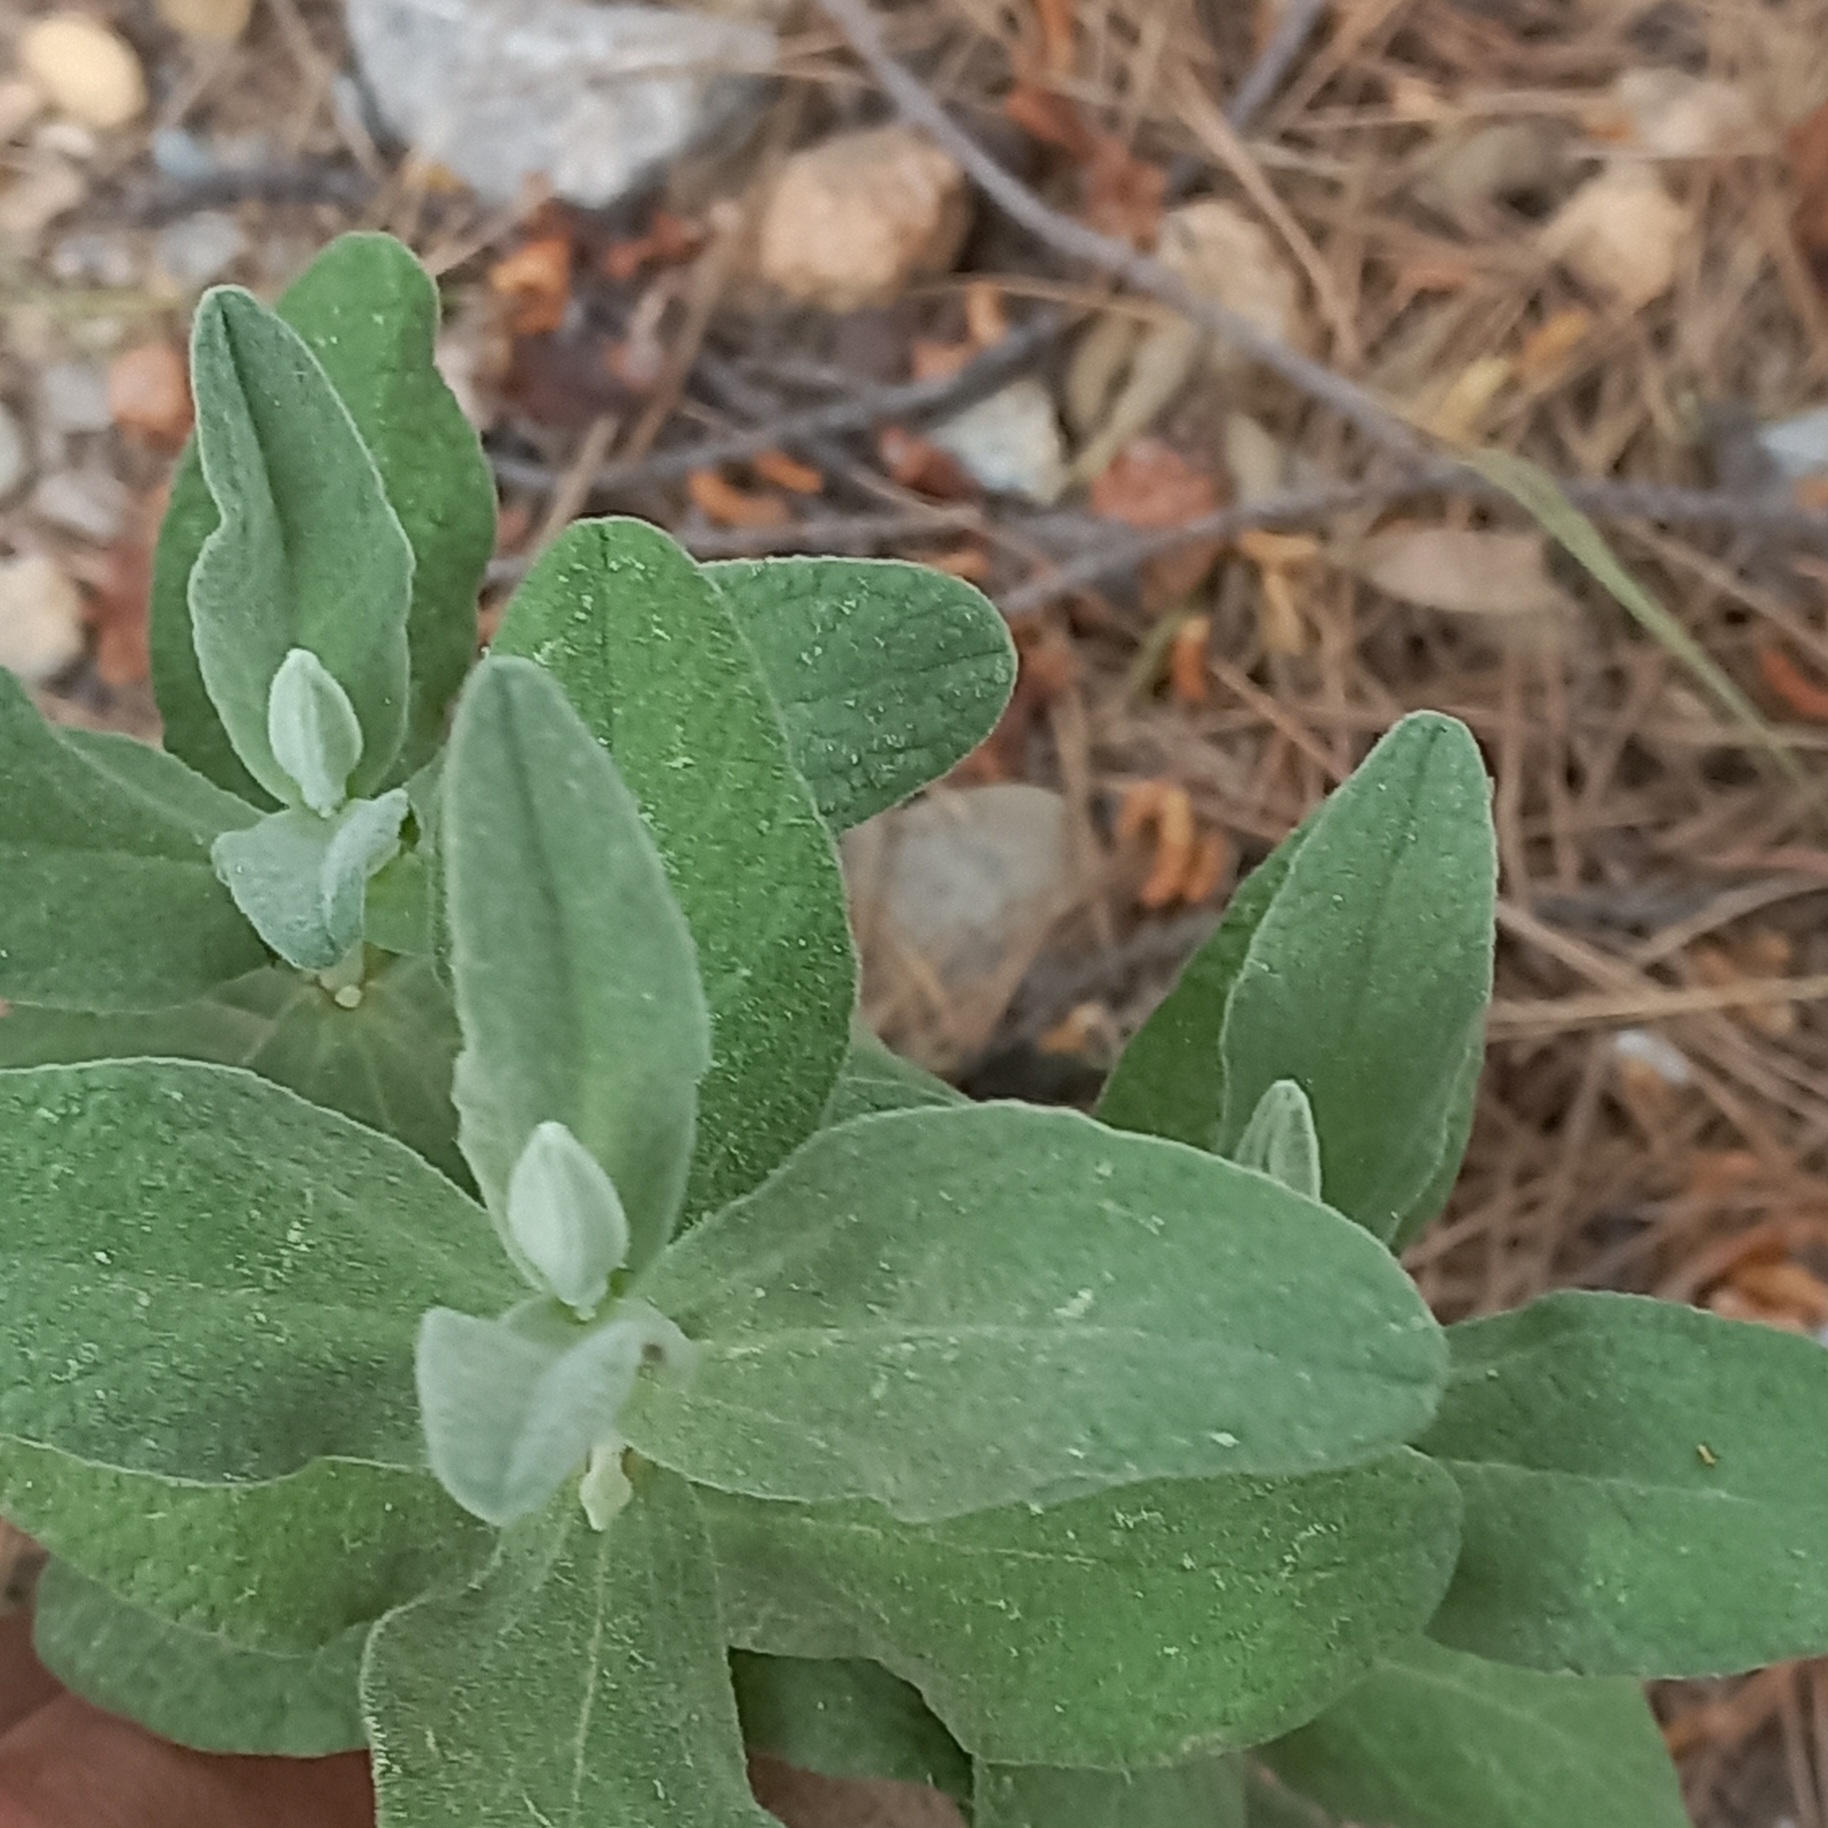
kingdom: Plantae
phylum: Tracheophyta
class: Magnoliopsida
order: Malvales
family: Cistaceae
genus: Cistus
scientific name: Cistus albidus
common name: White-leaf rock-rose
